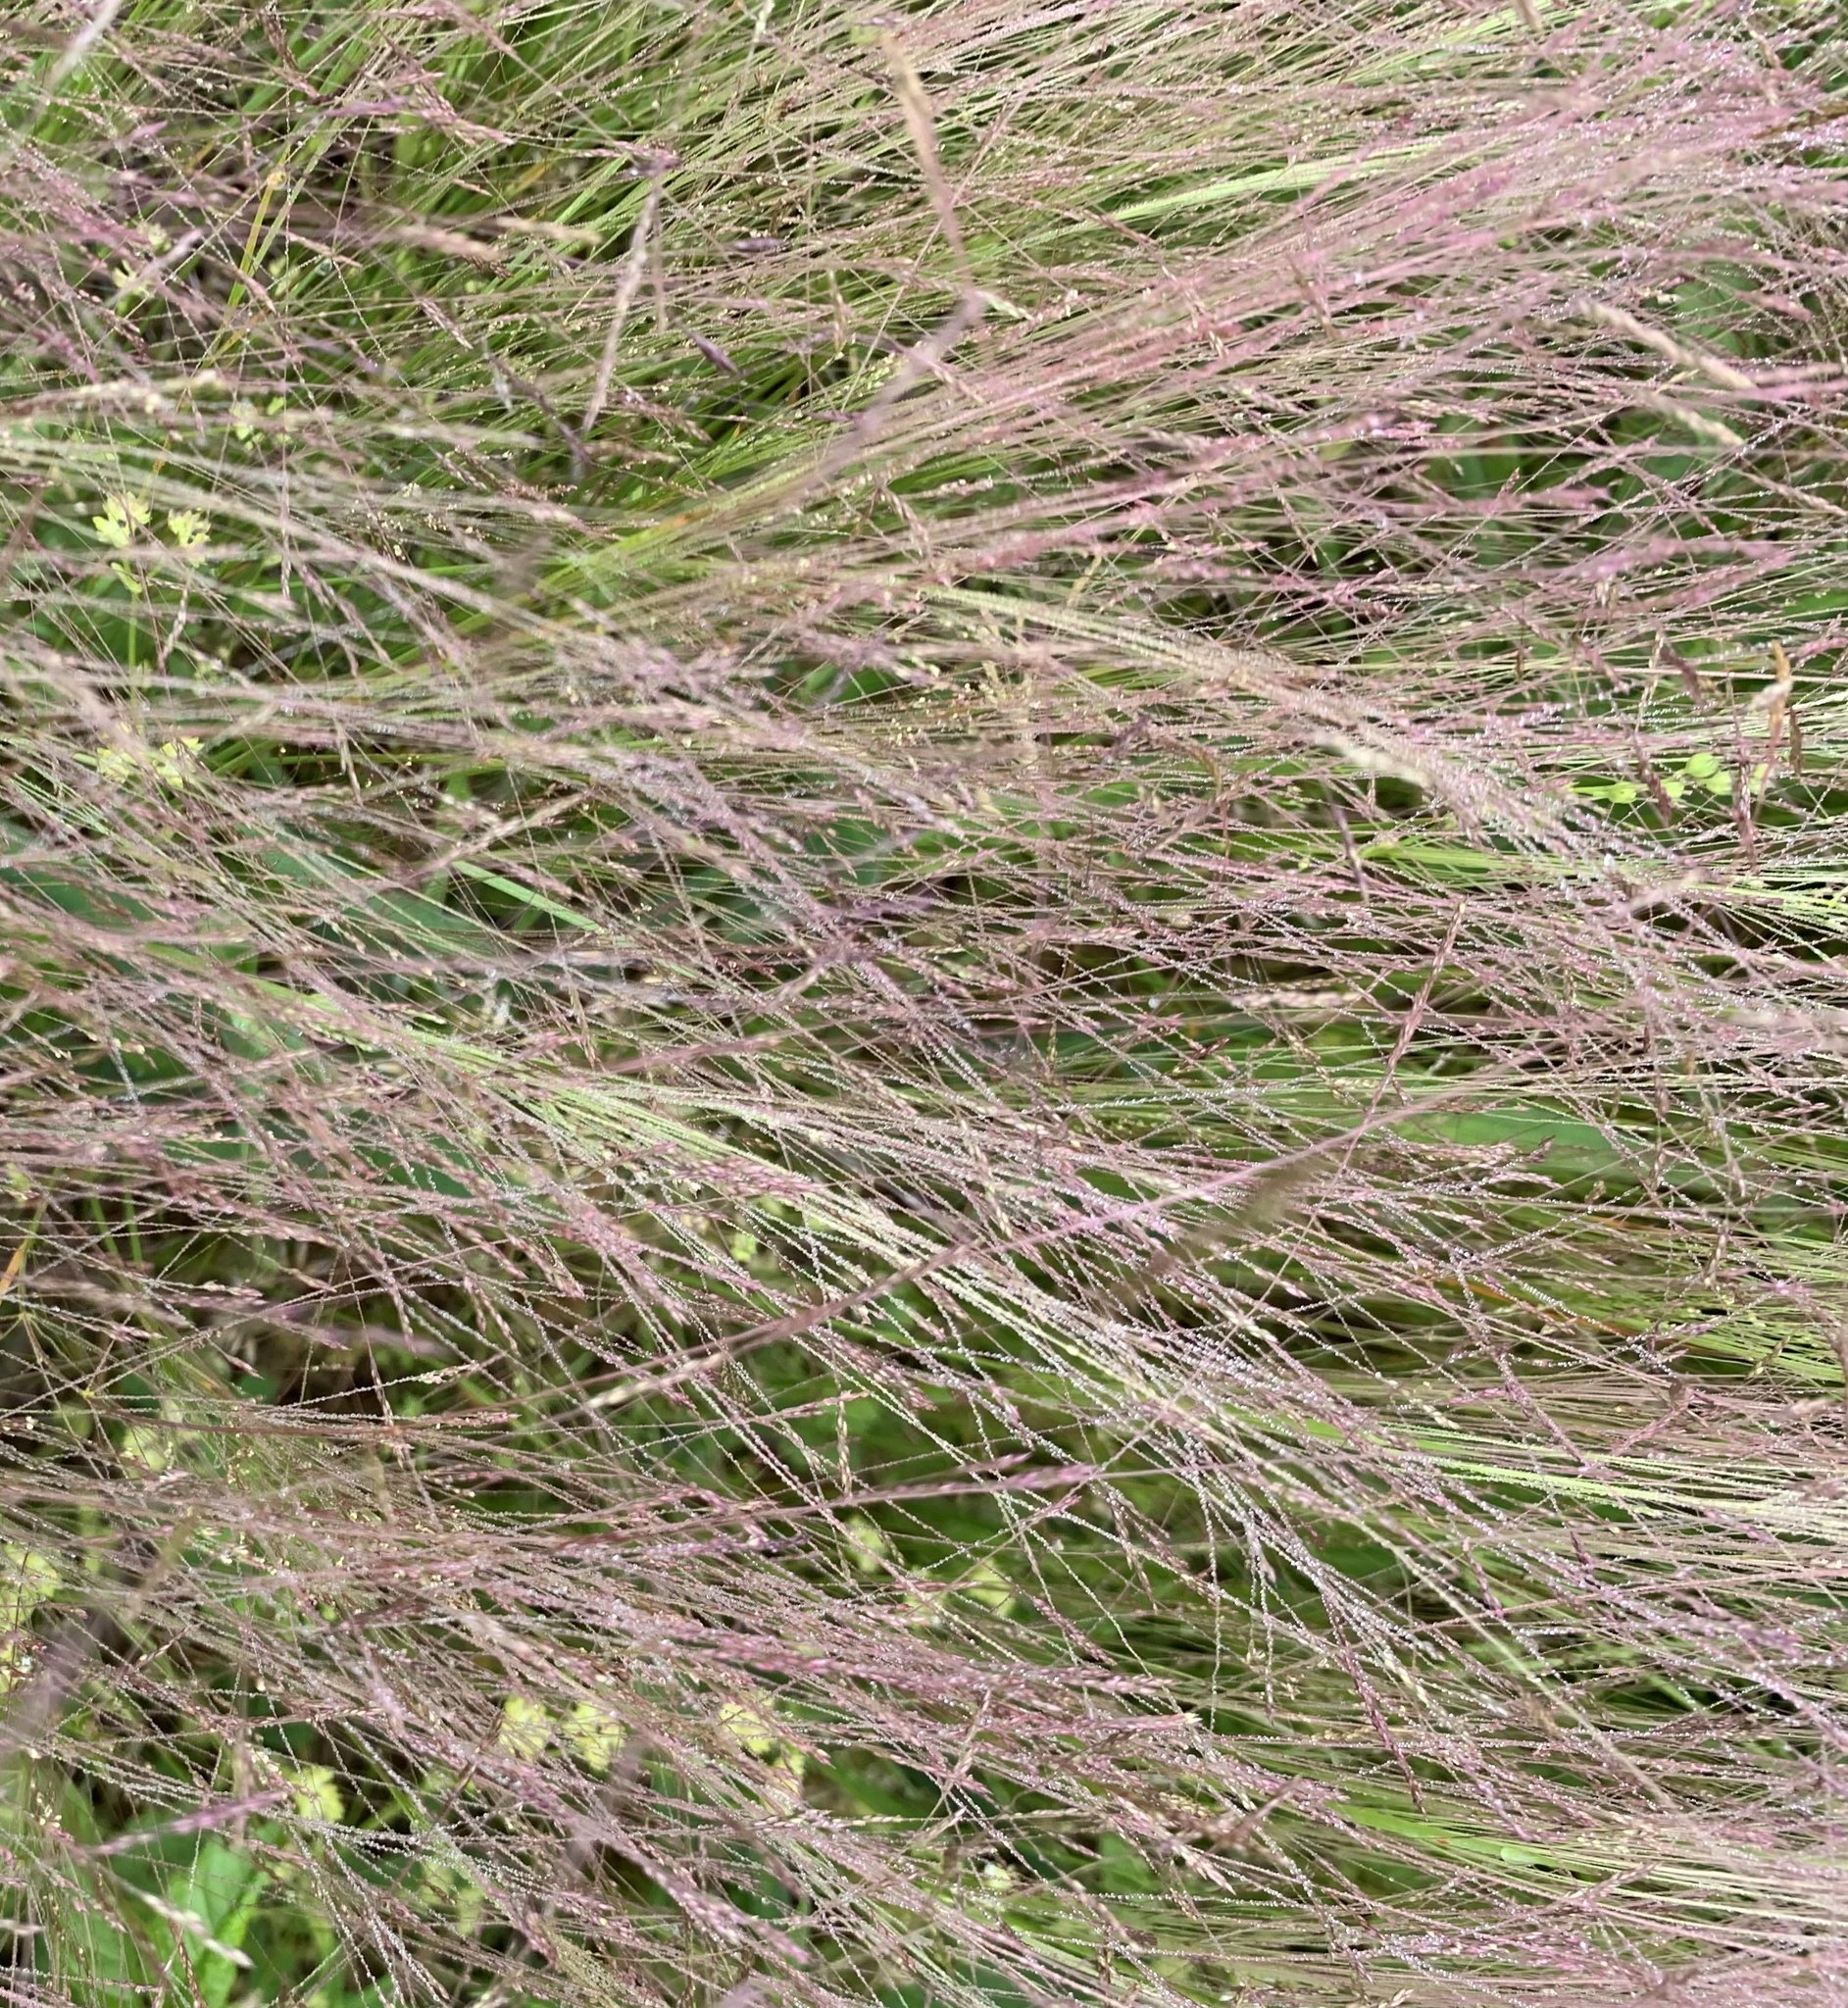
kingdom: Plantae
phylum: Tracheophyta
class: Liliopsida
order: Poales
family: Poaceae
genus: Agrostis
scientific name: Agrostis hyemalis
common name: Small bent
